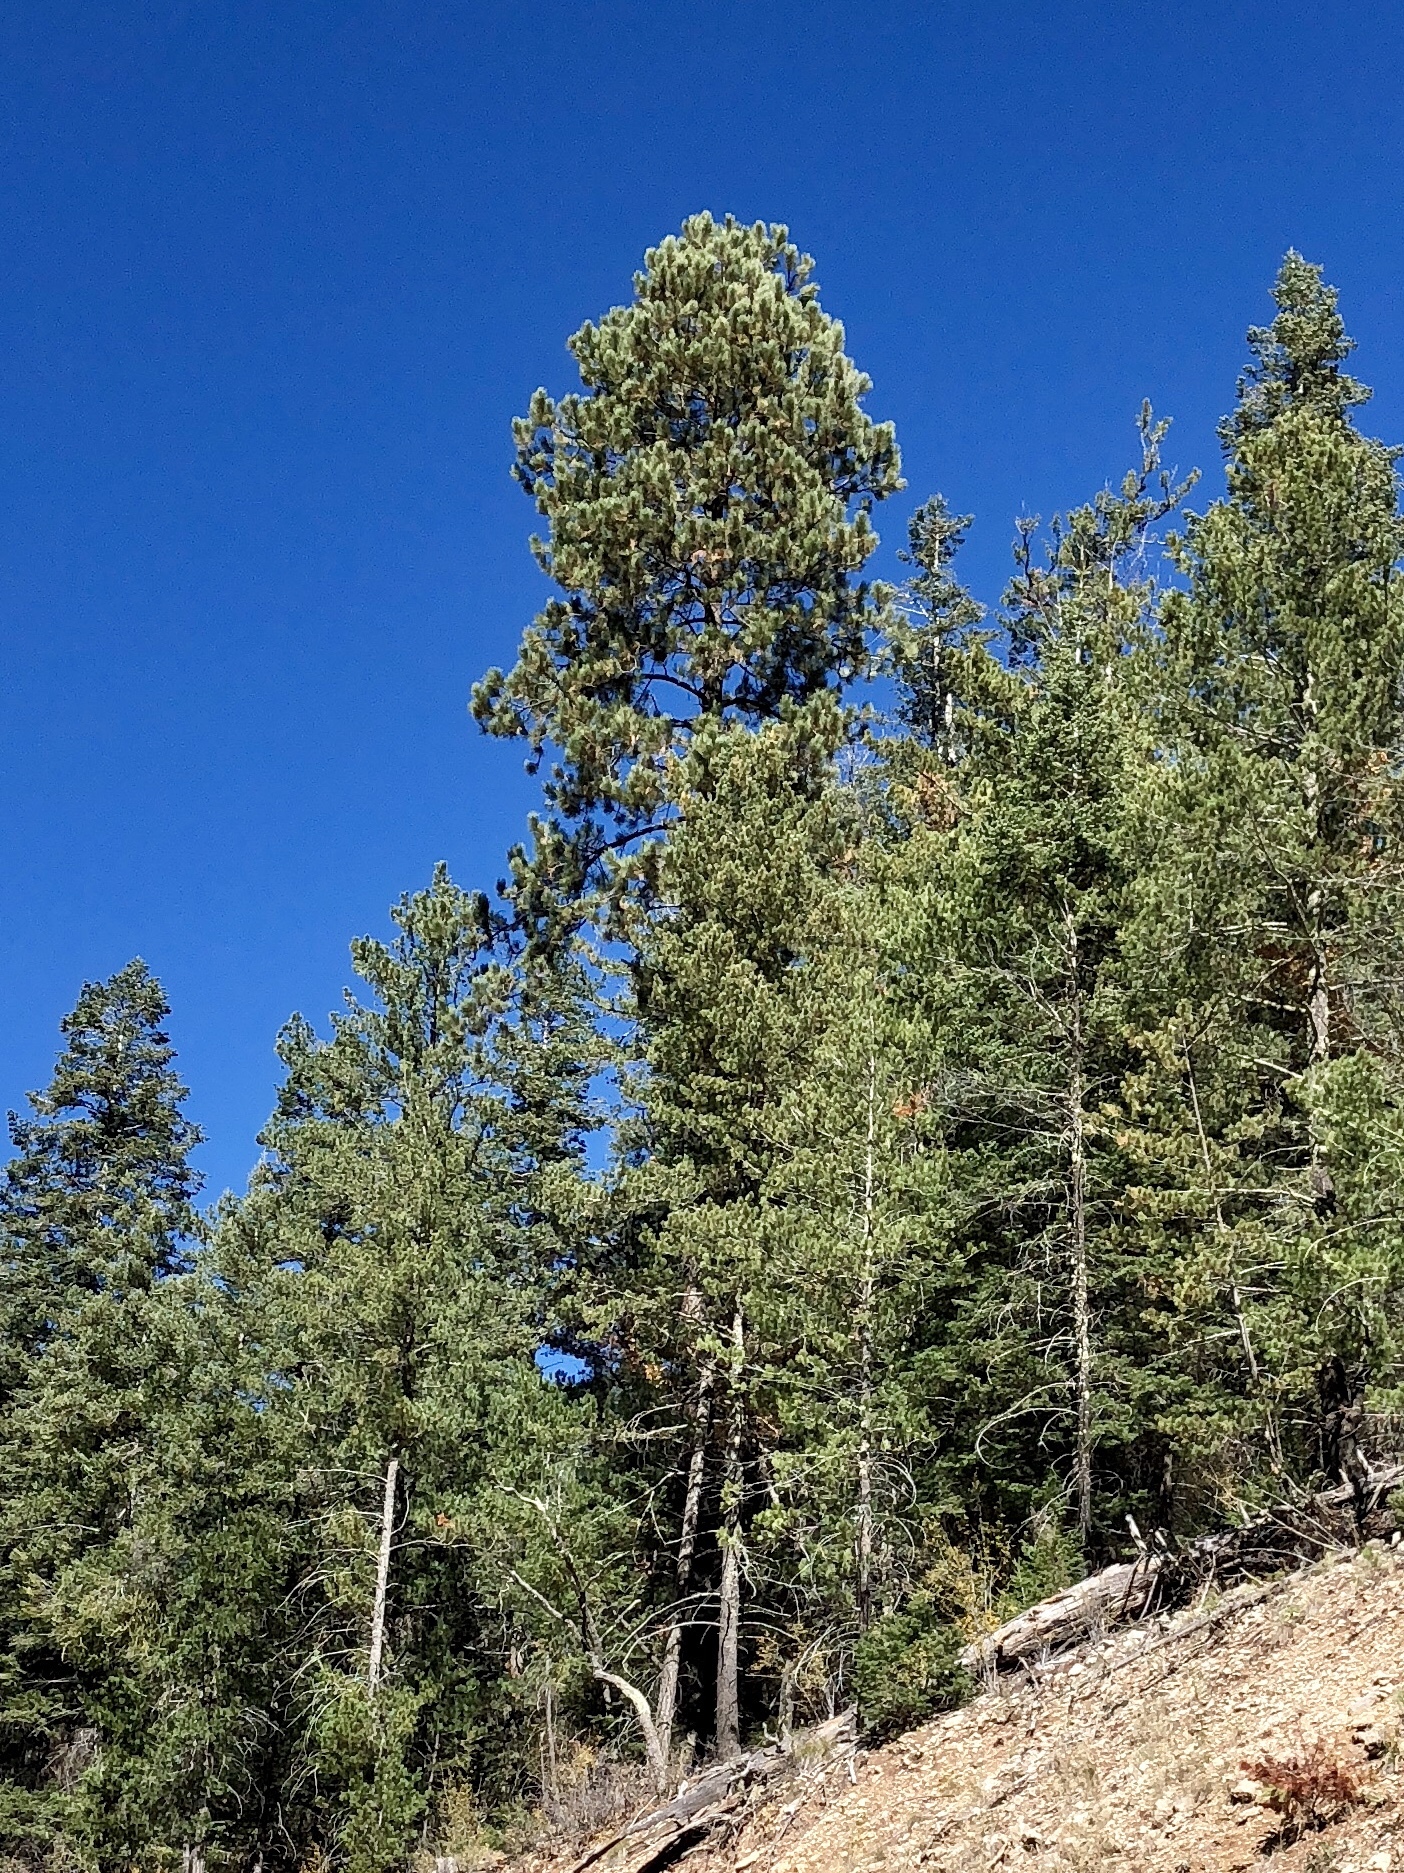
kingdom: Plantae
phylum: Tracheophyta
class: Pinopsida
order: Pinales
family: Pinaceae
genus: Pinus
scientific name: Pinus ponderosa
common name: Western yellow-pine
